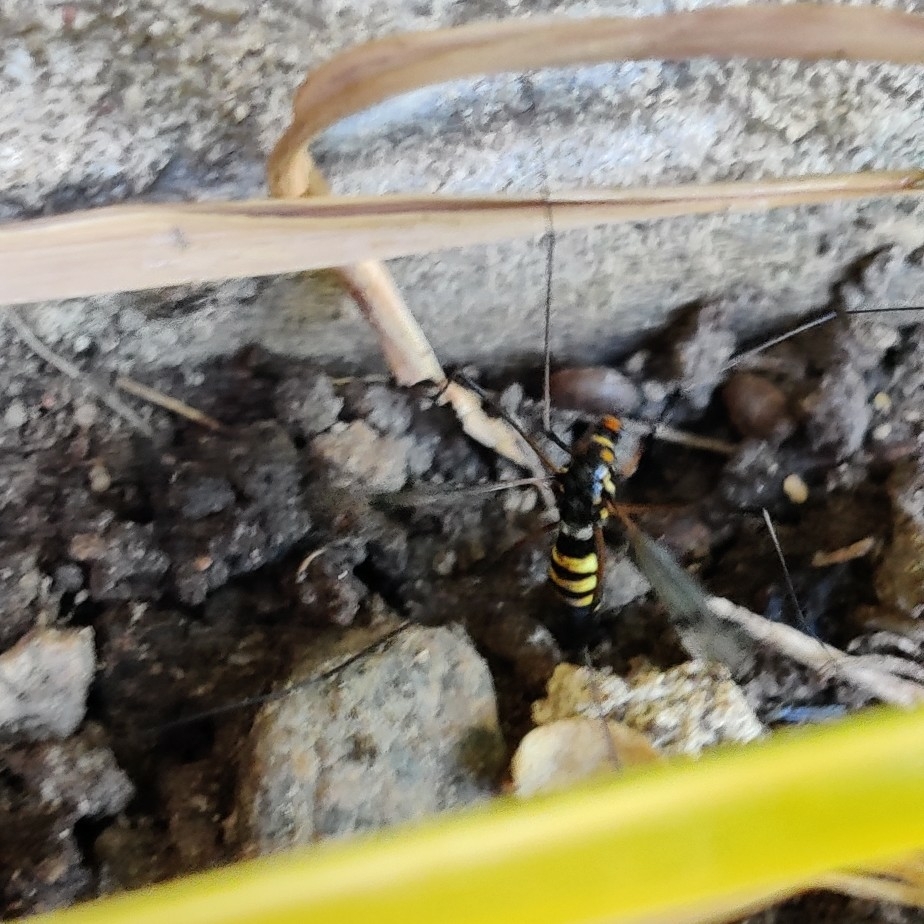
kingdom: Animalia
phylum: Arthropoda
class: Insecta
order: Diptera
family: Tipulidae
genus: Nephrotoma
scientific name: Nephrotoma crocata
